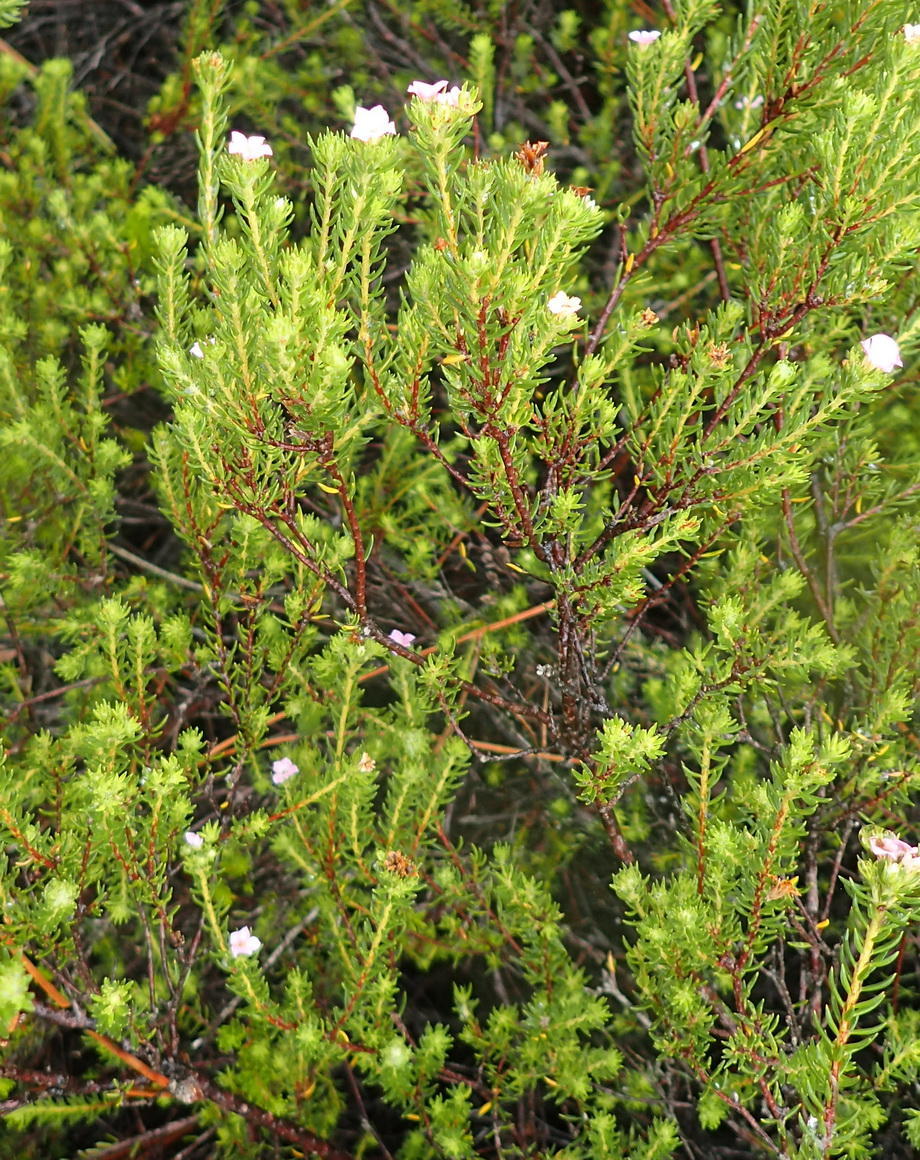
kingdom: Plantae
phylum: Tracheophyta
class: Magnoliopsida
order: Sapindales
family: Rutaceae
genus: Acmadenia
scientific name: Acmadenia alternifolia
